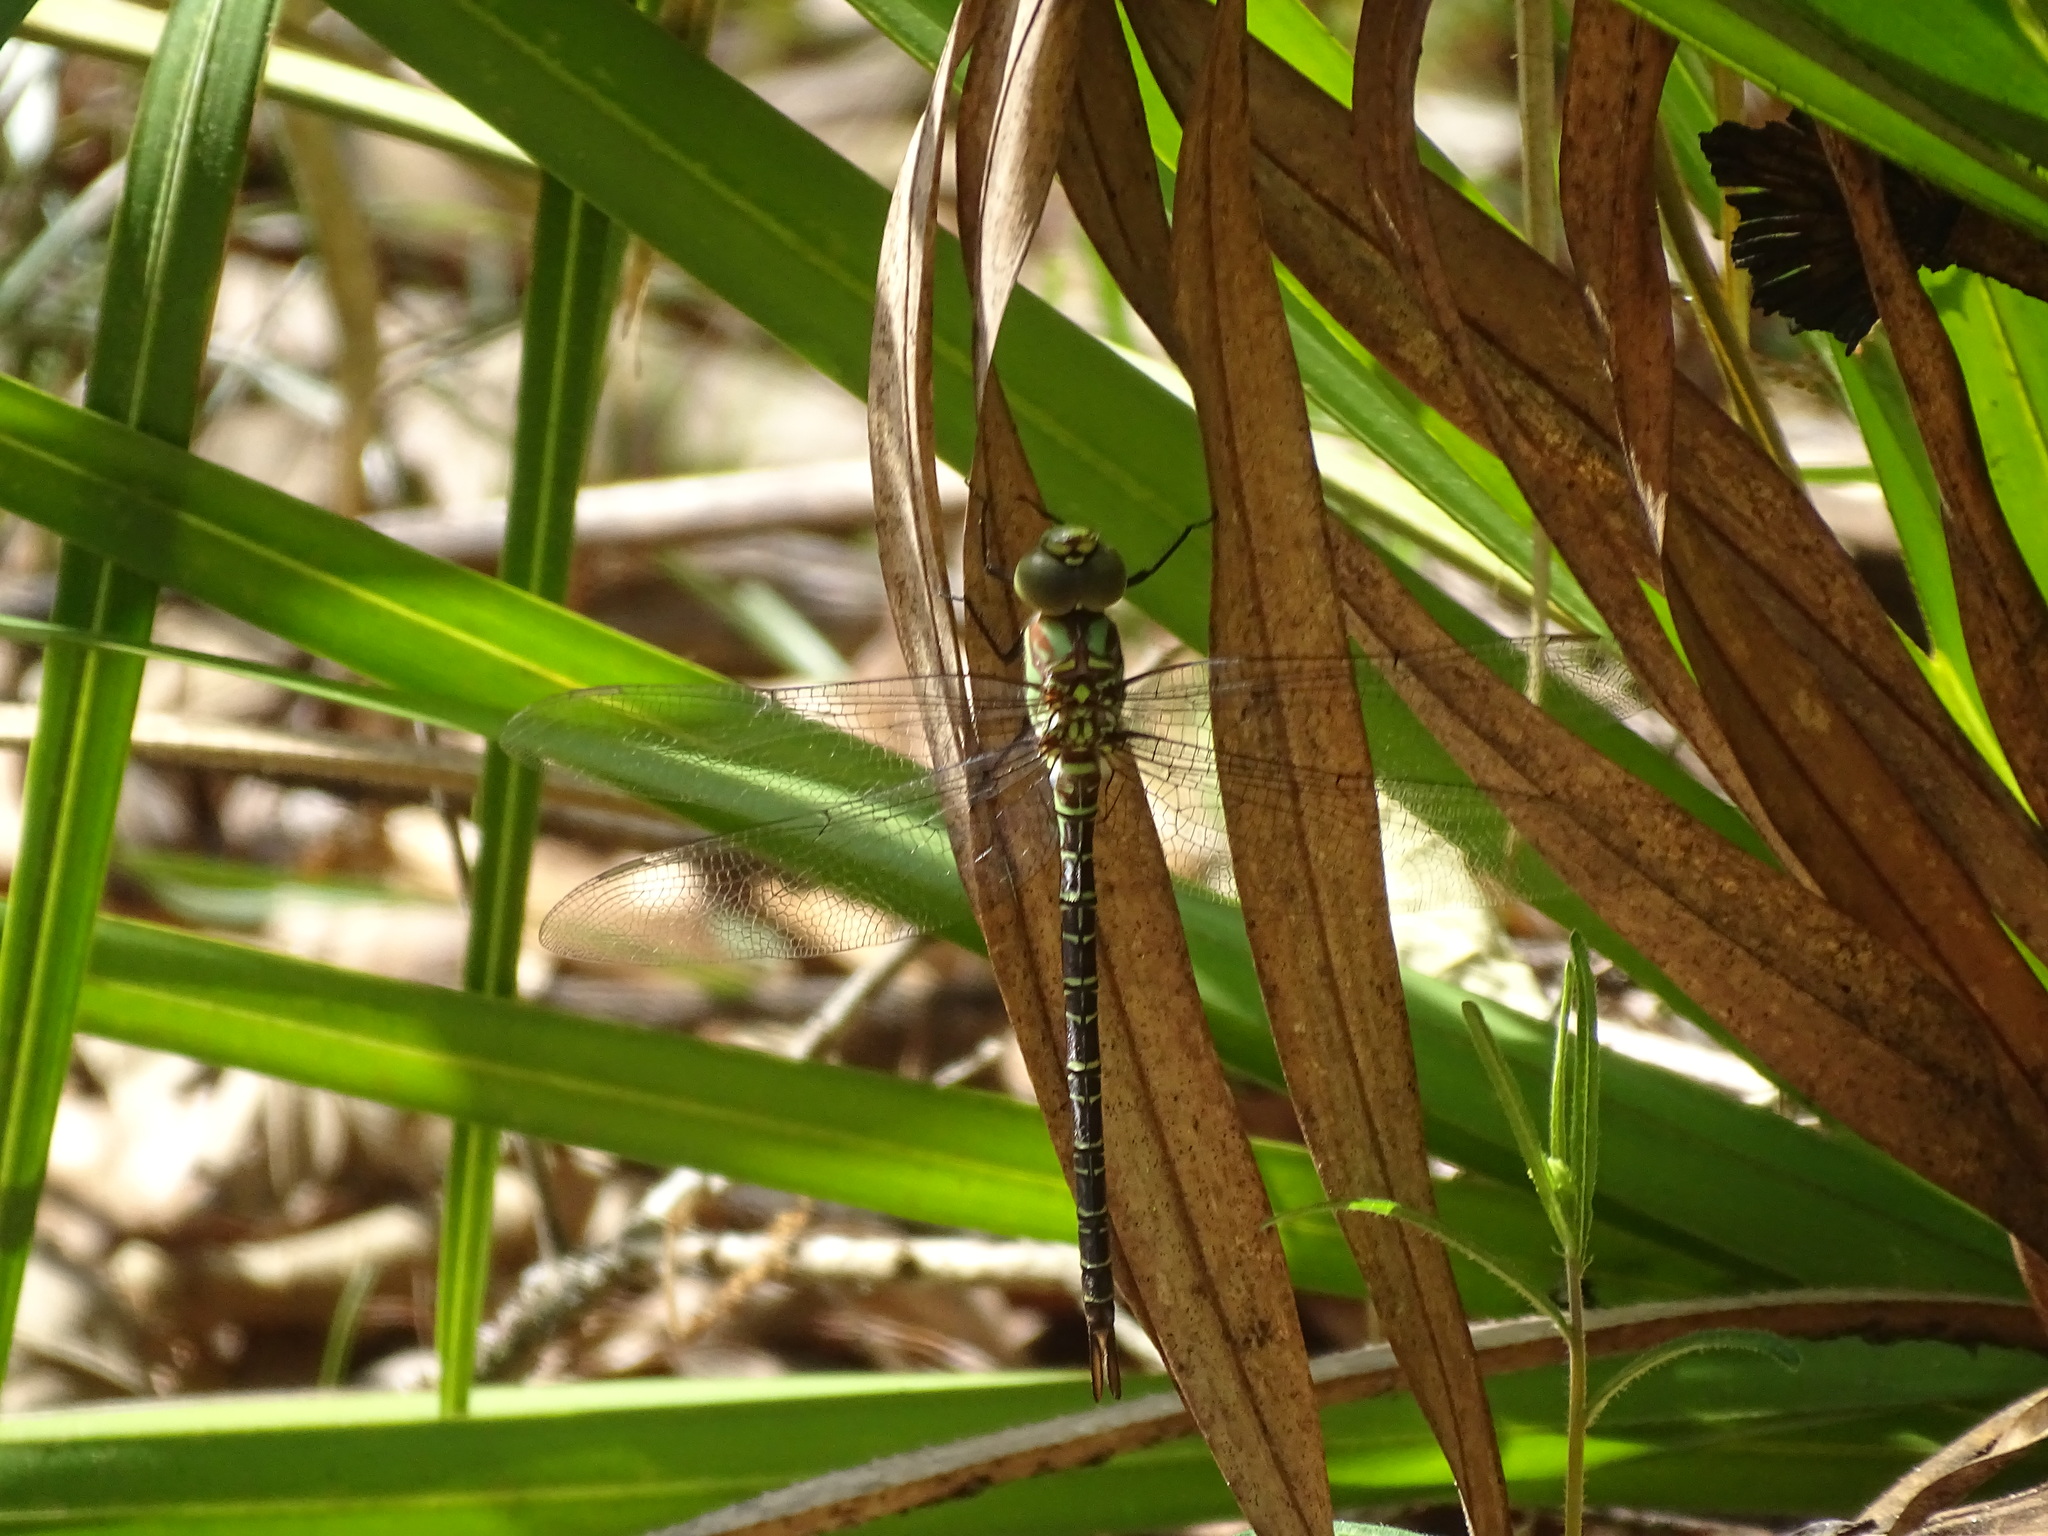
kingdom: Animalia
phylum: Arthropoda
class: Insecta
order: Odonata
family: Aeshnidae
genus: Coryphaeschna
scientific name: Coryphaeschna ingens
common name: Regal darner
